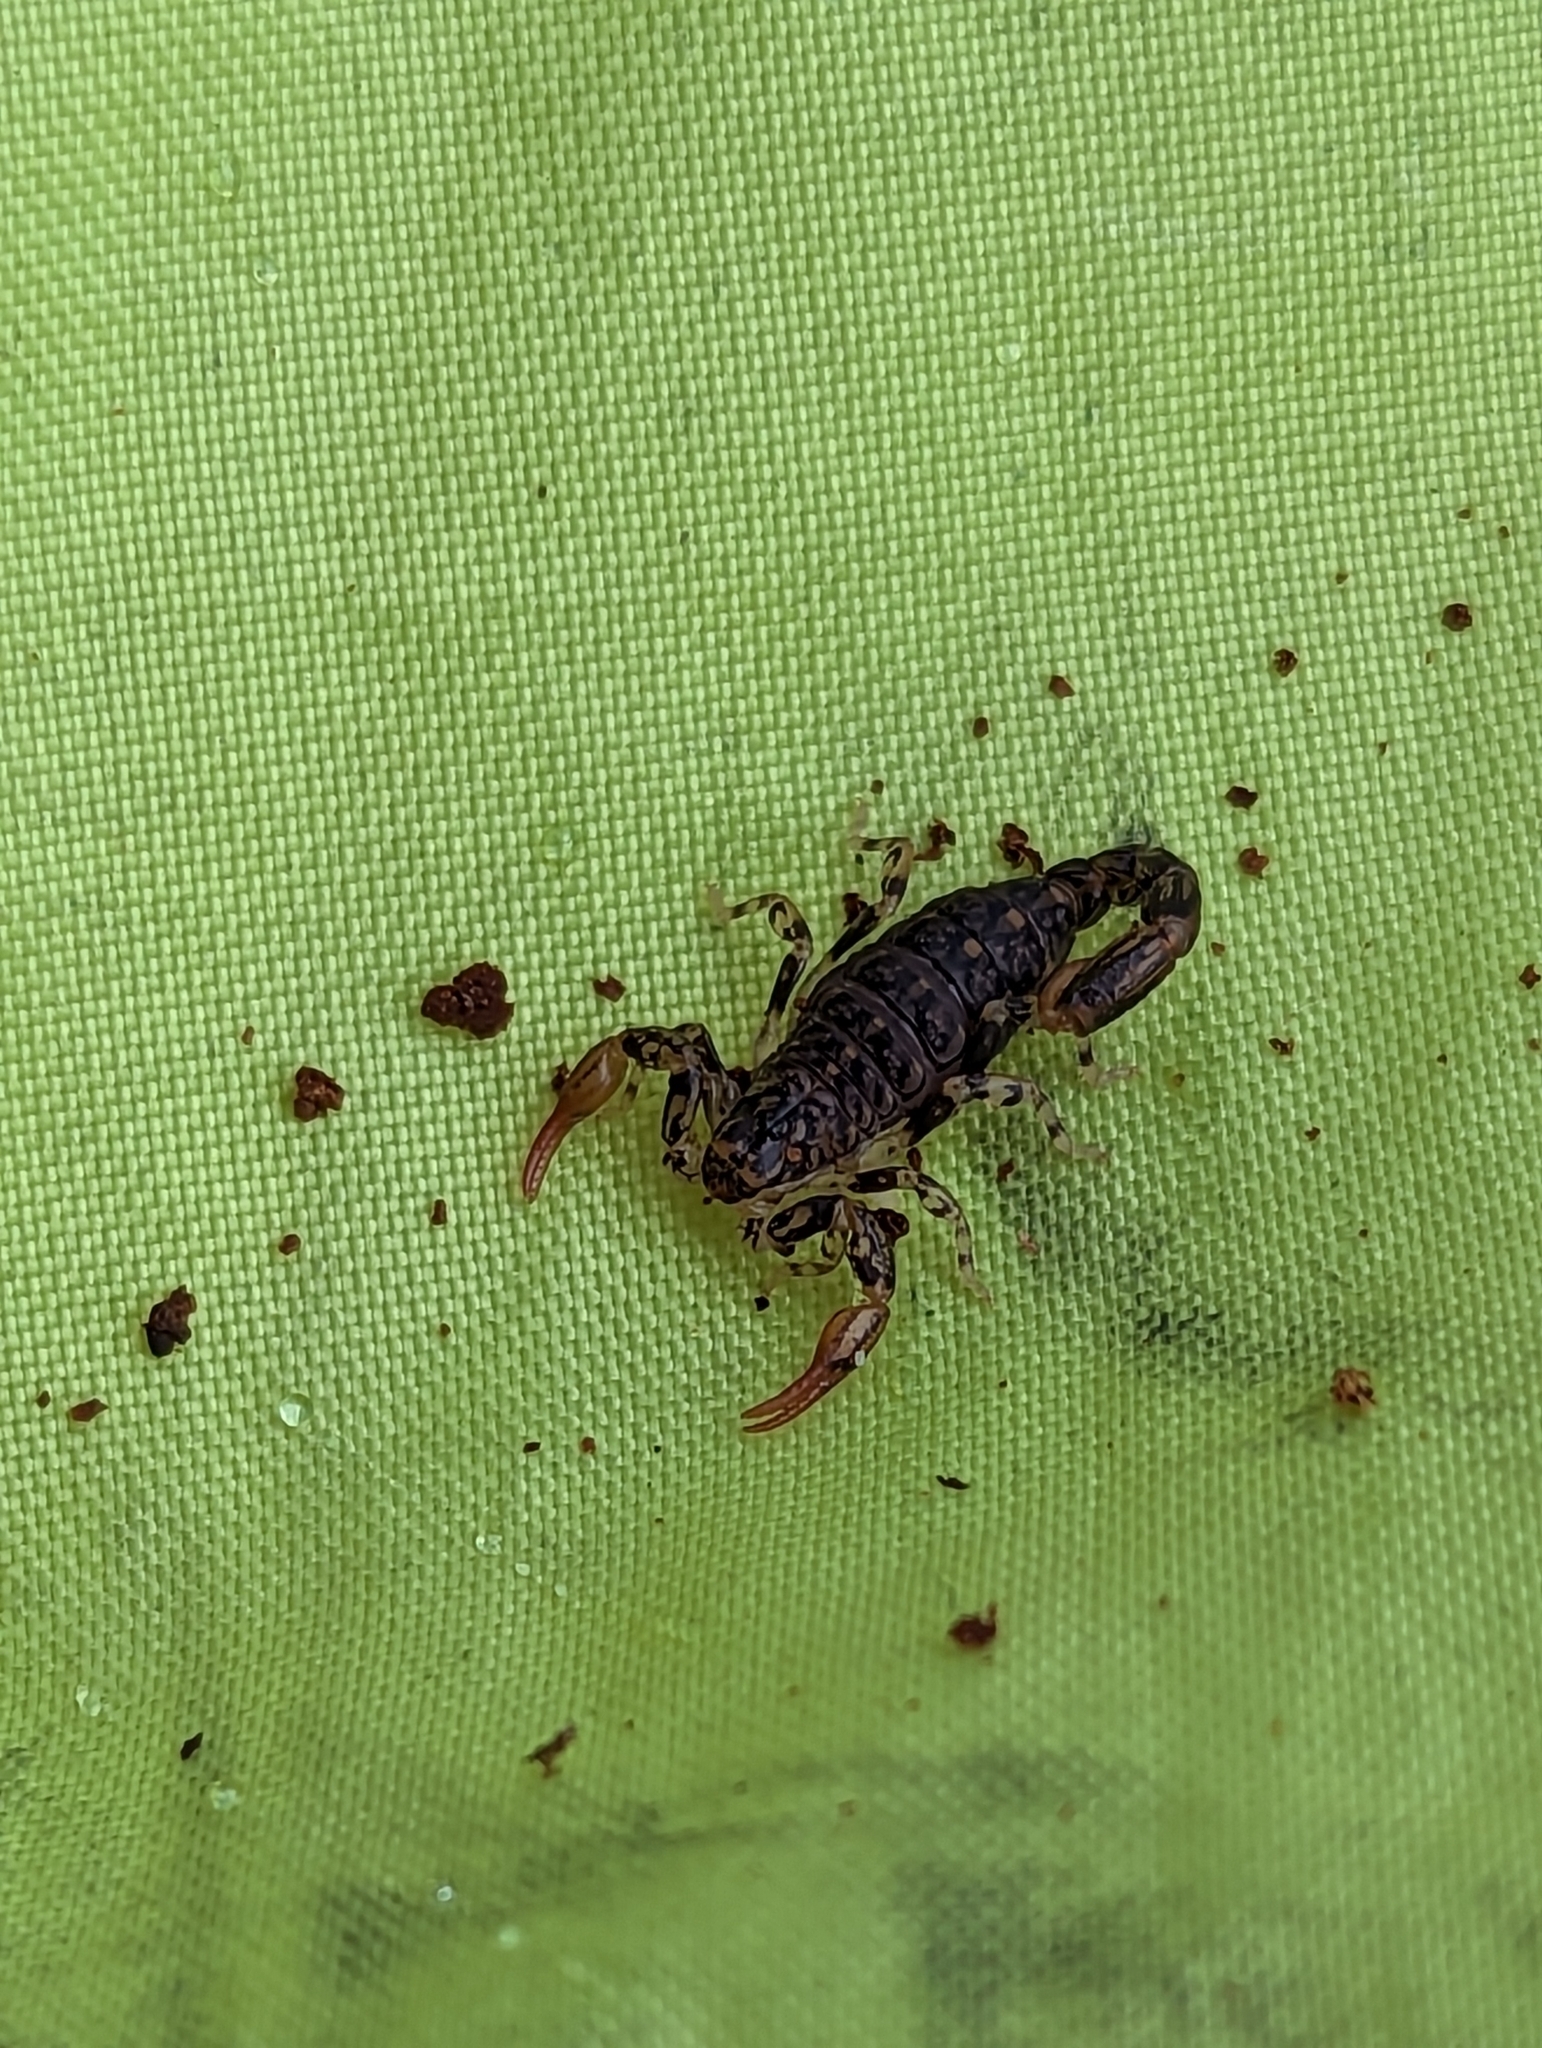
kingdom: Animalia
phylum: Arthropoda
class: Arachnida
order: Scorpiones
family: Bothriuridae
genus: Cercophonius
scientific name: Cercophonius squama
